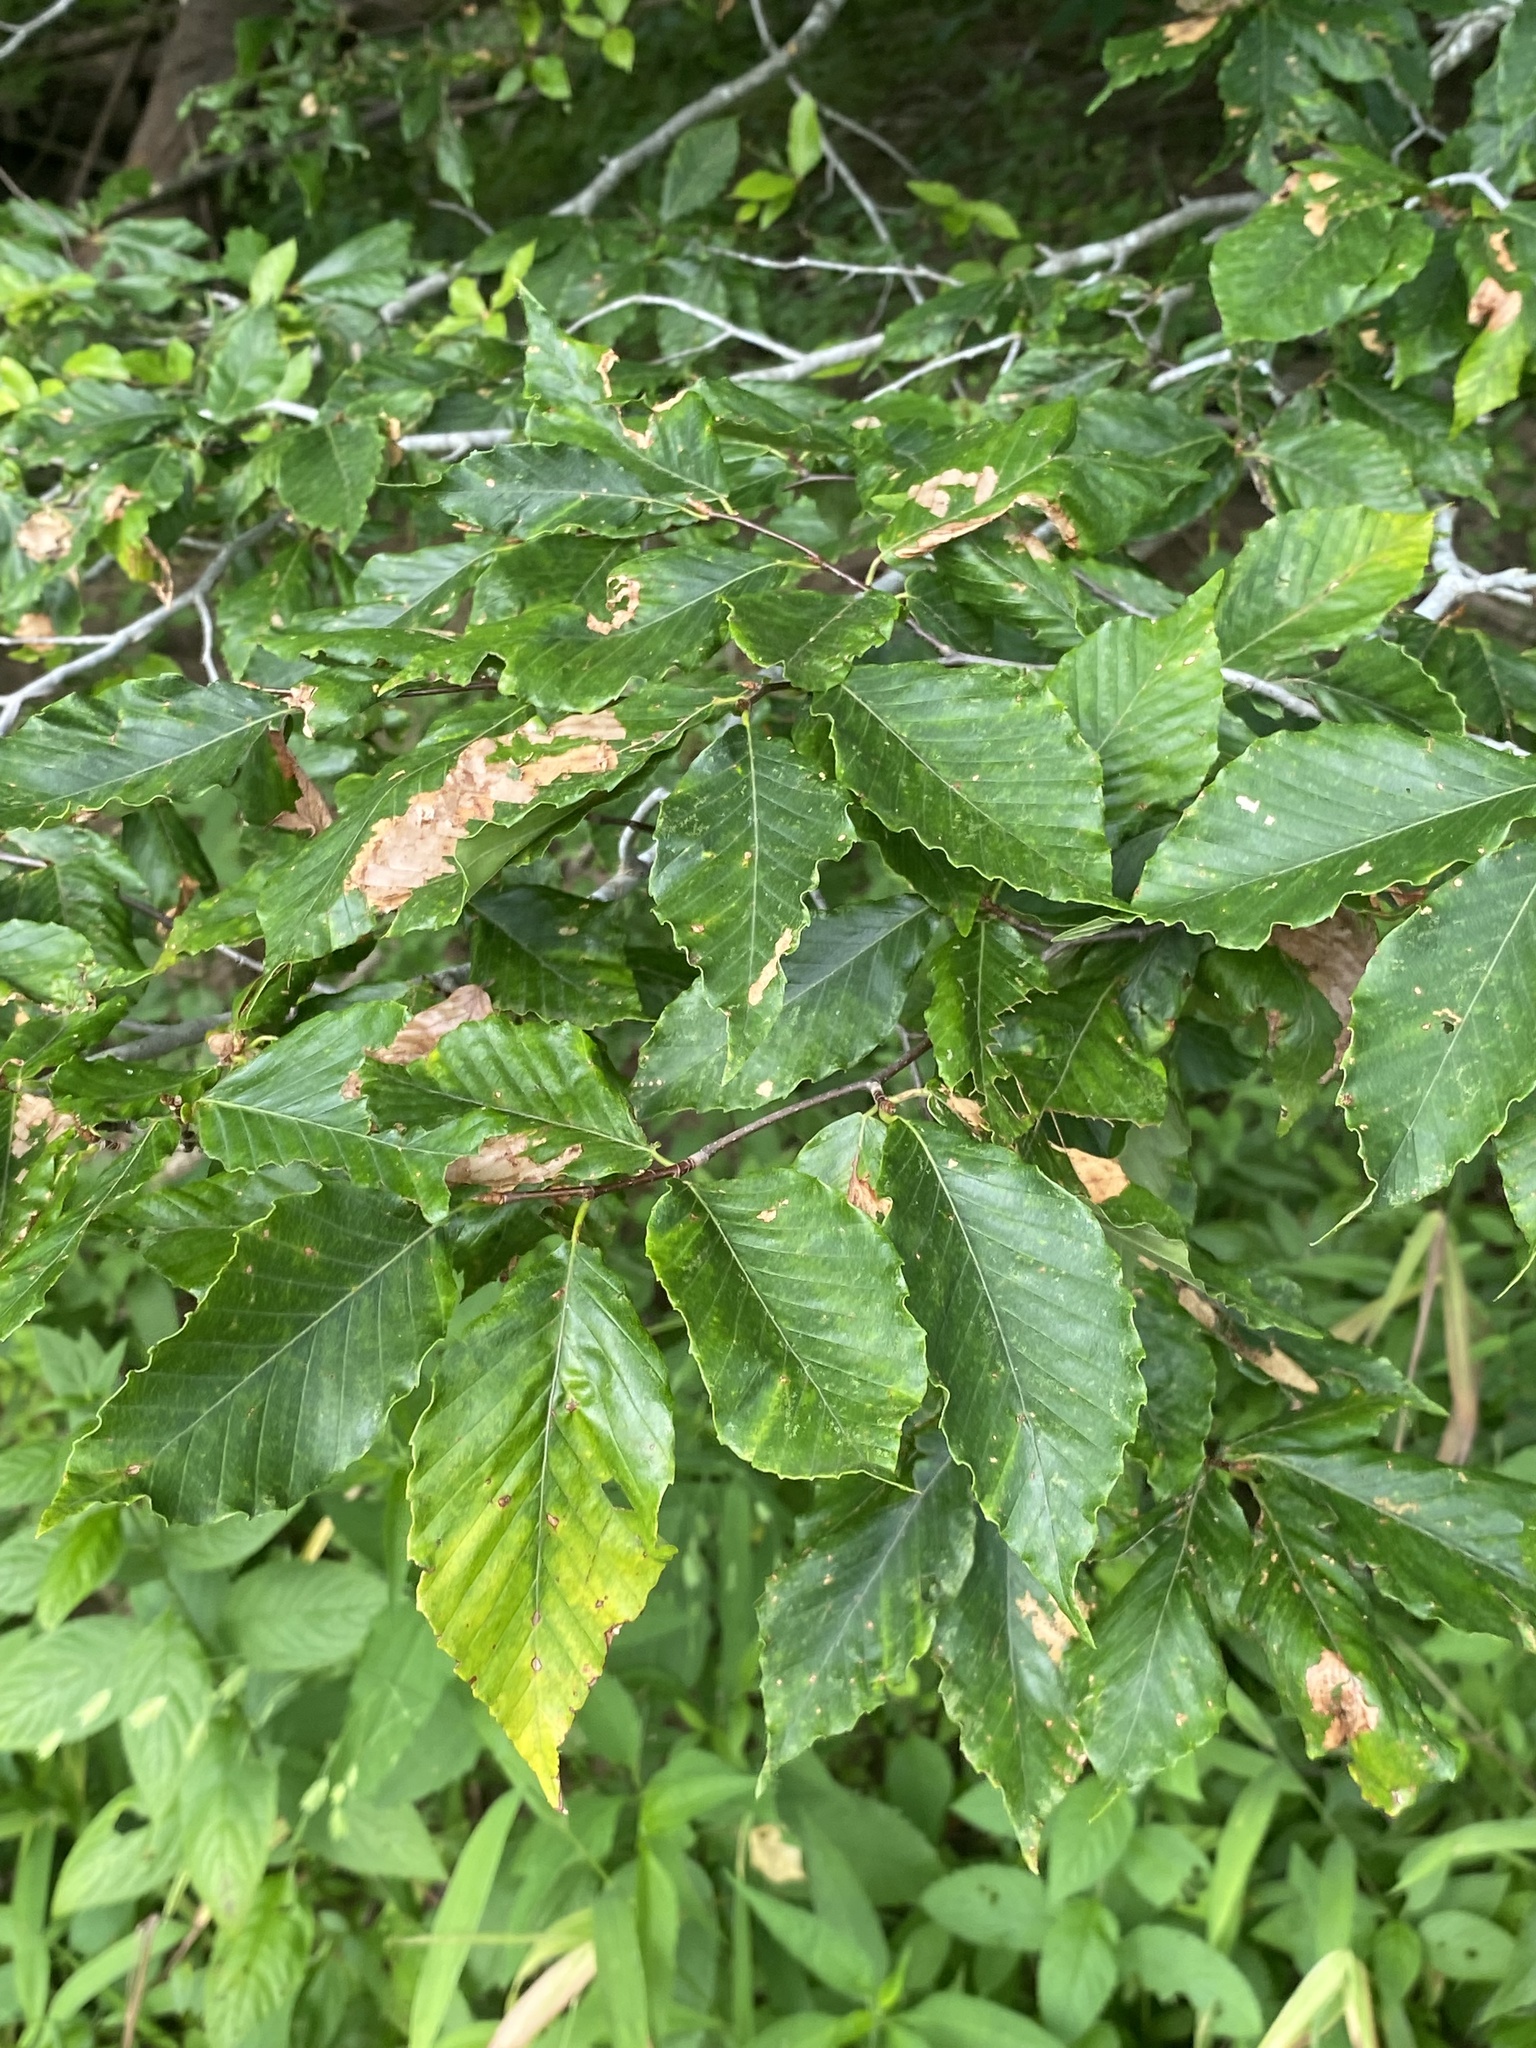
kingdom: Plantae
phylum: Tracheophyta
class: Magnoliopsida
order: Fagales
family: Fagaceae
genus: Fagus
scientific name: Fagus grandifolia
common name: American beech
